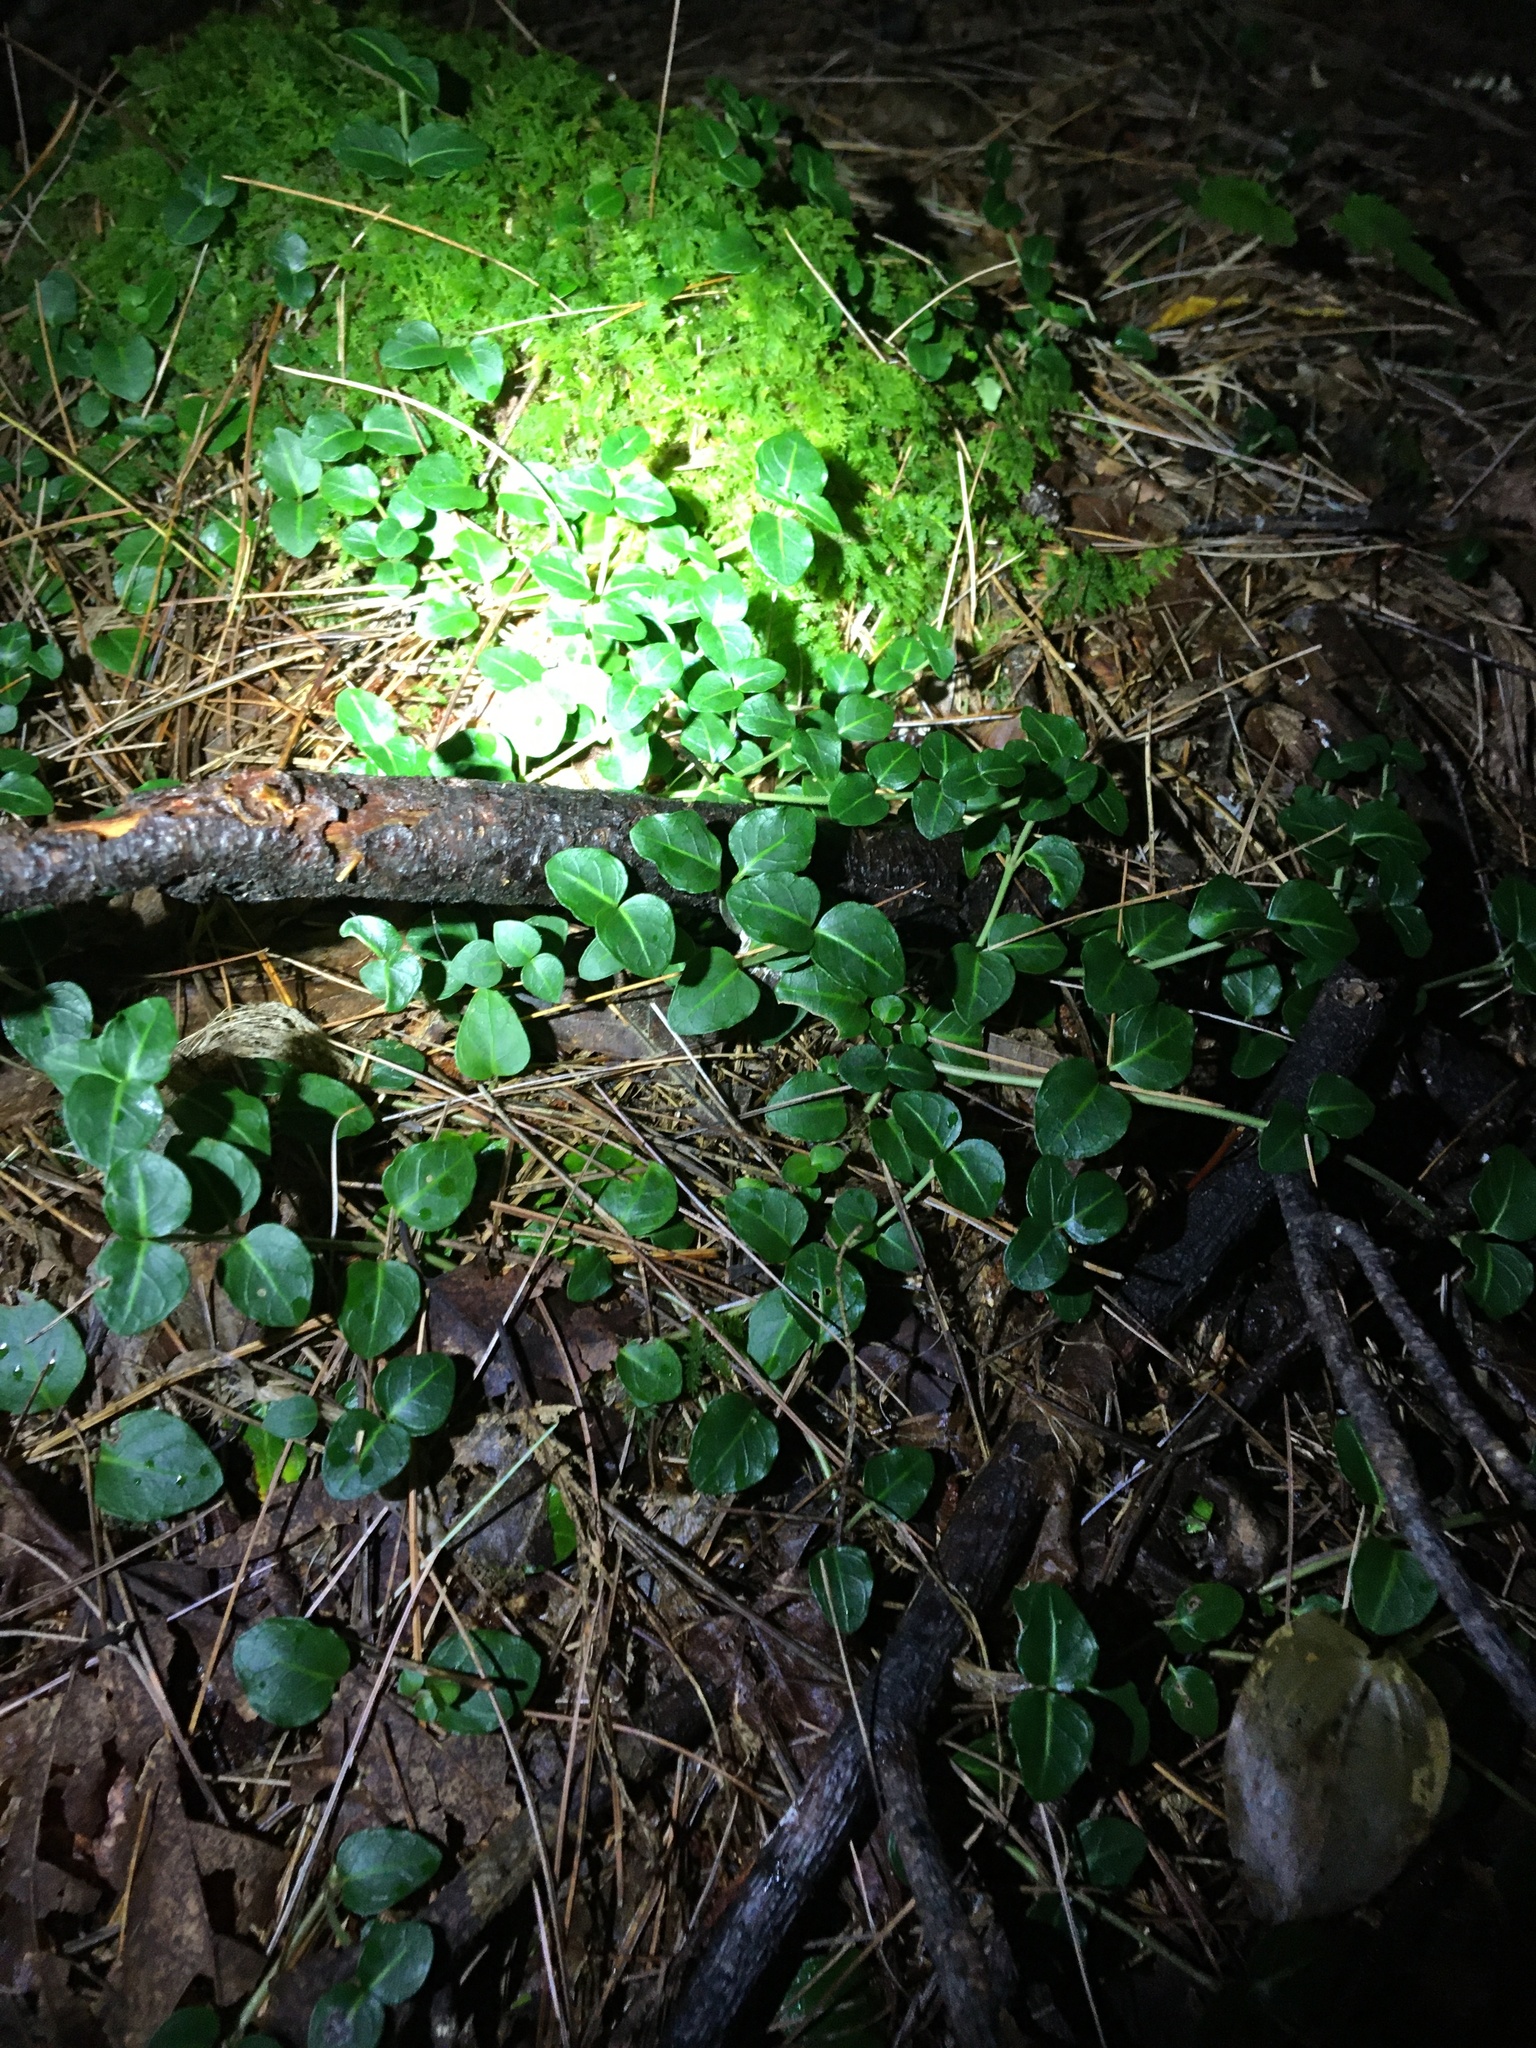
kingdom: Plantae
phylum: Tracheophyta
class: Magnoliopsida
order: Gentianales
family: Rubiaceae
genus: Mitchella
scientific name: Mitchella repens
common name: Partridge-berry
